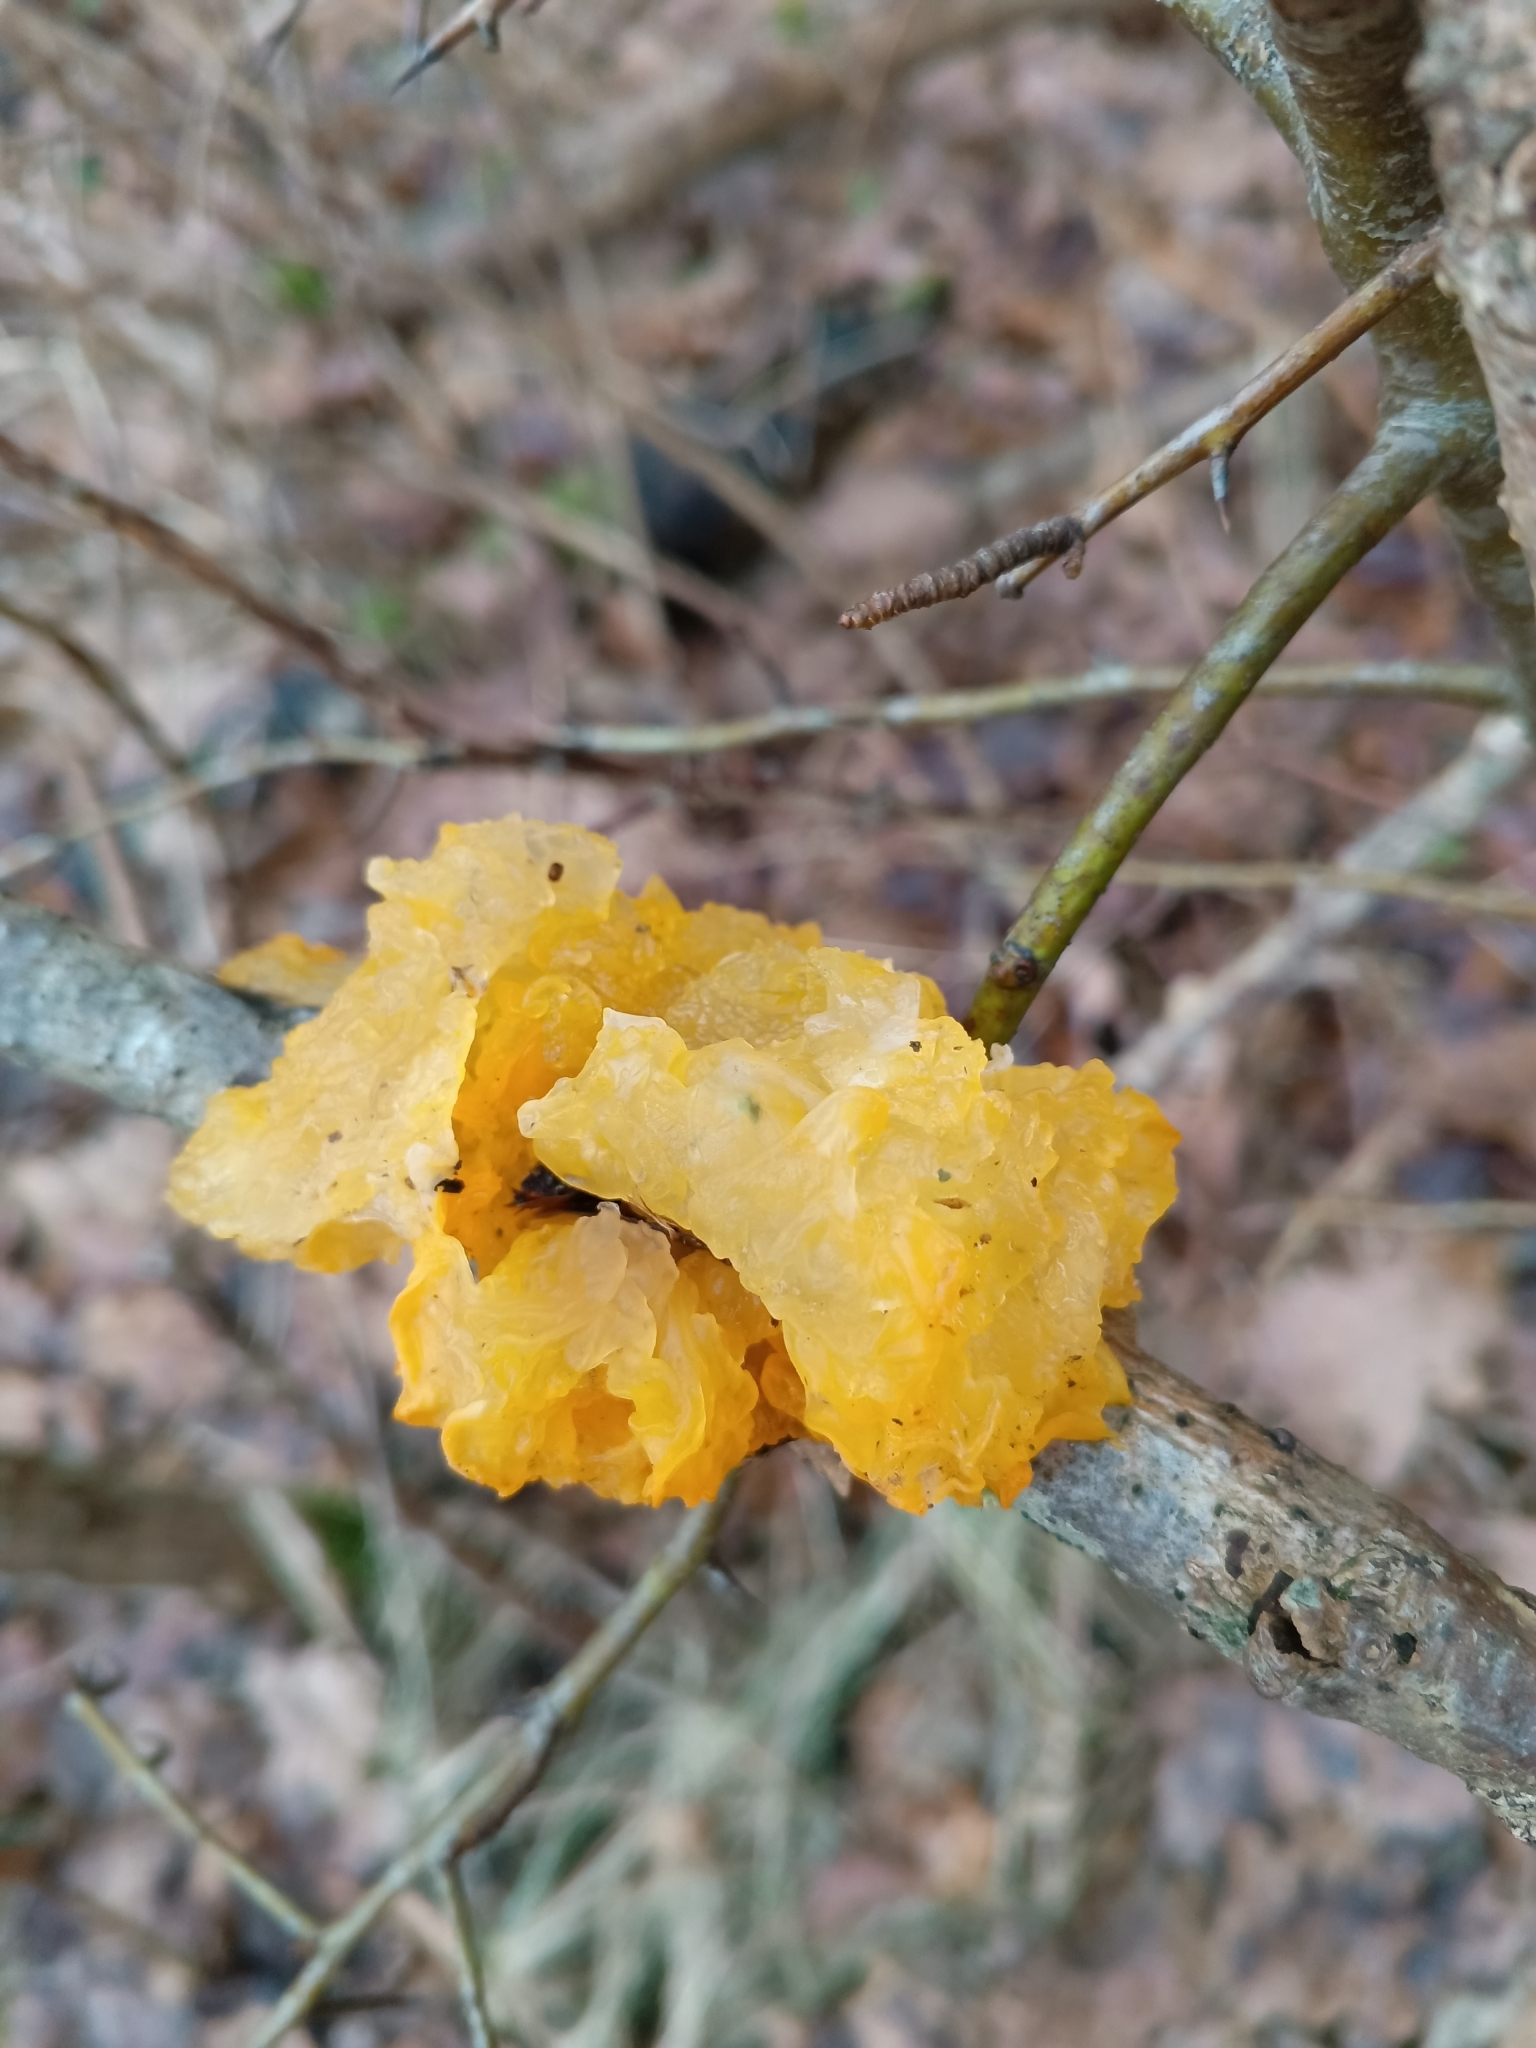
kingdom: Fungi
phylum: Basidiomycota
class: Tremellomycetes
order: Tremellales
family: Tremellaceae
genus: Tremella
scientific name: Tremella mesenterica
